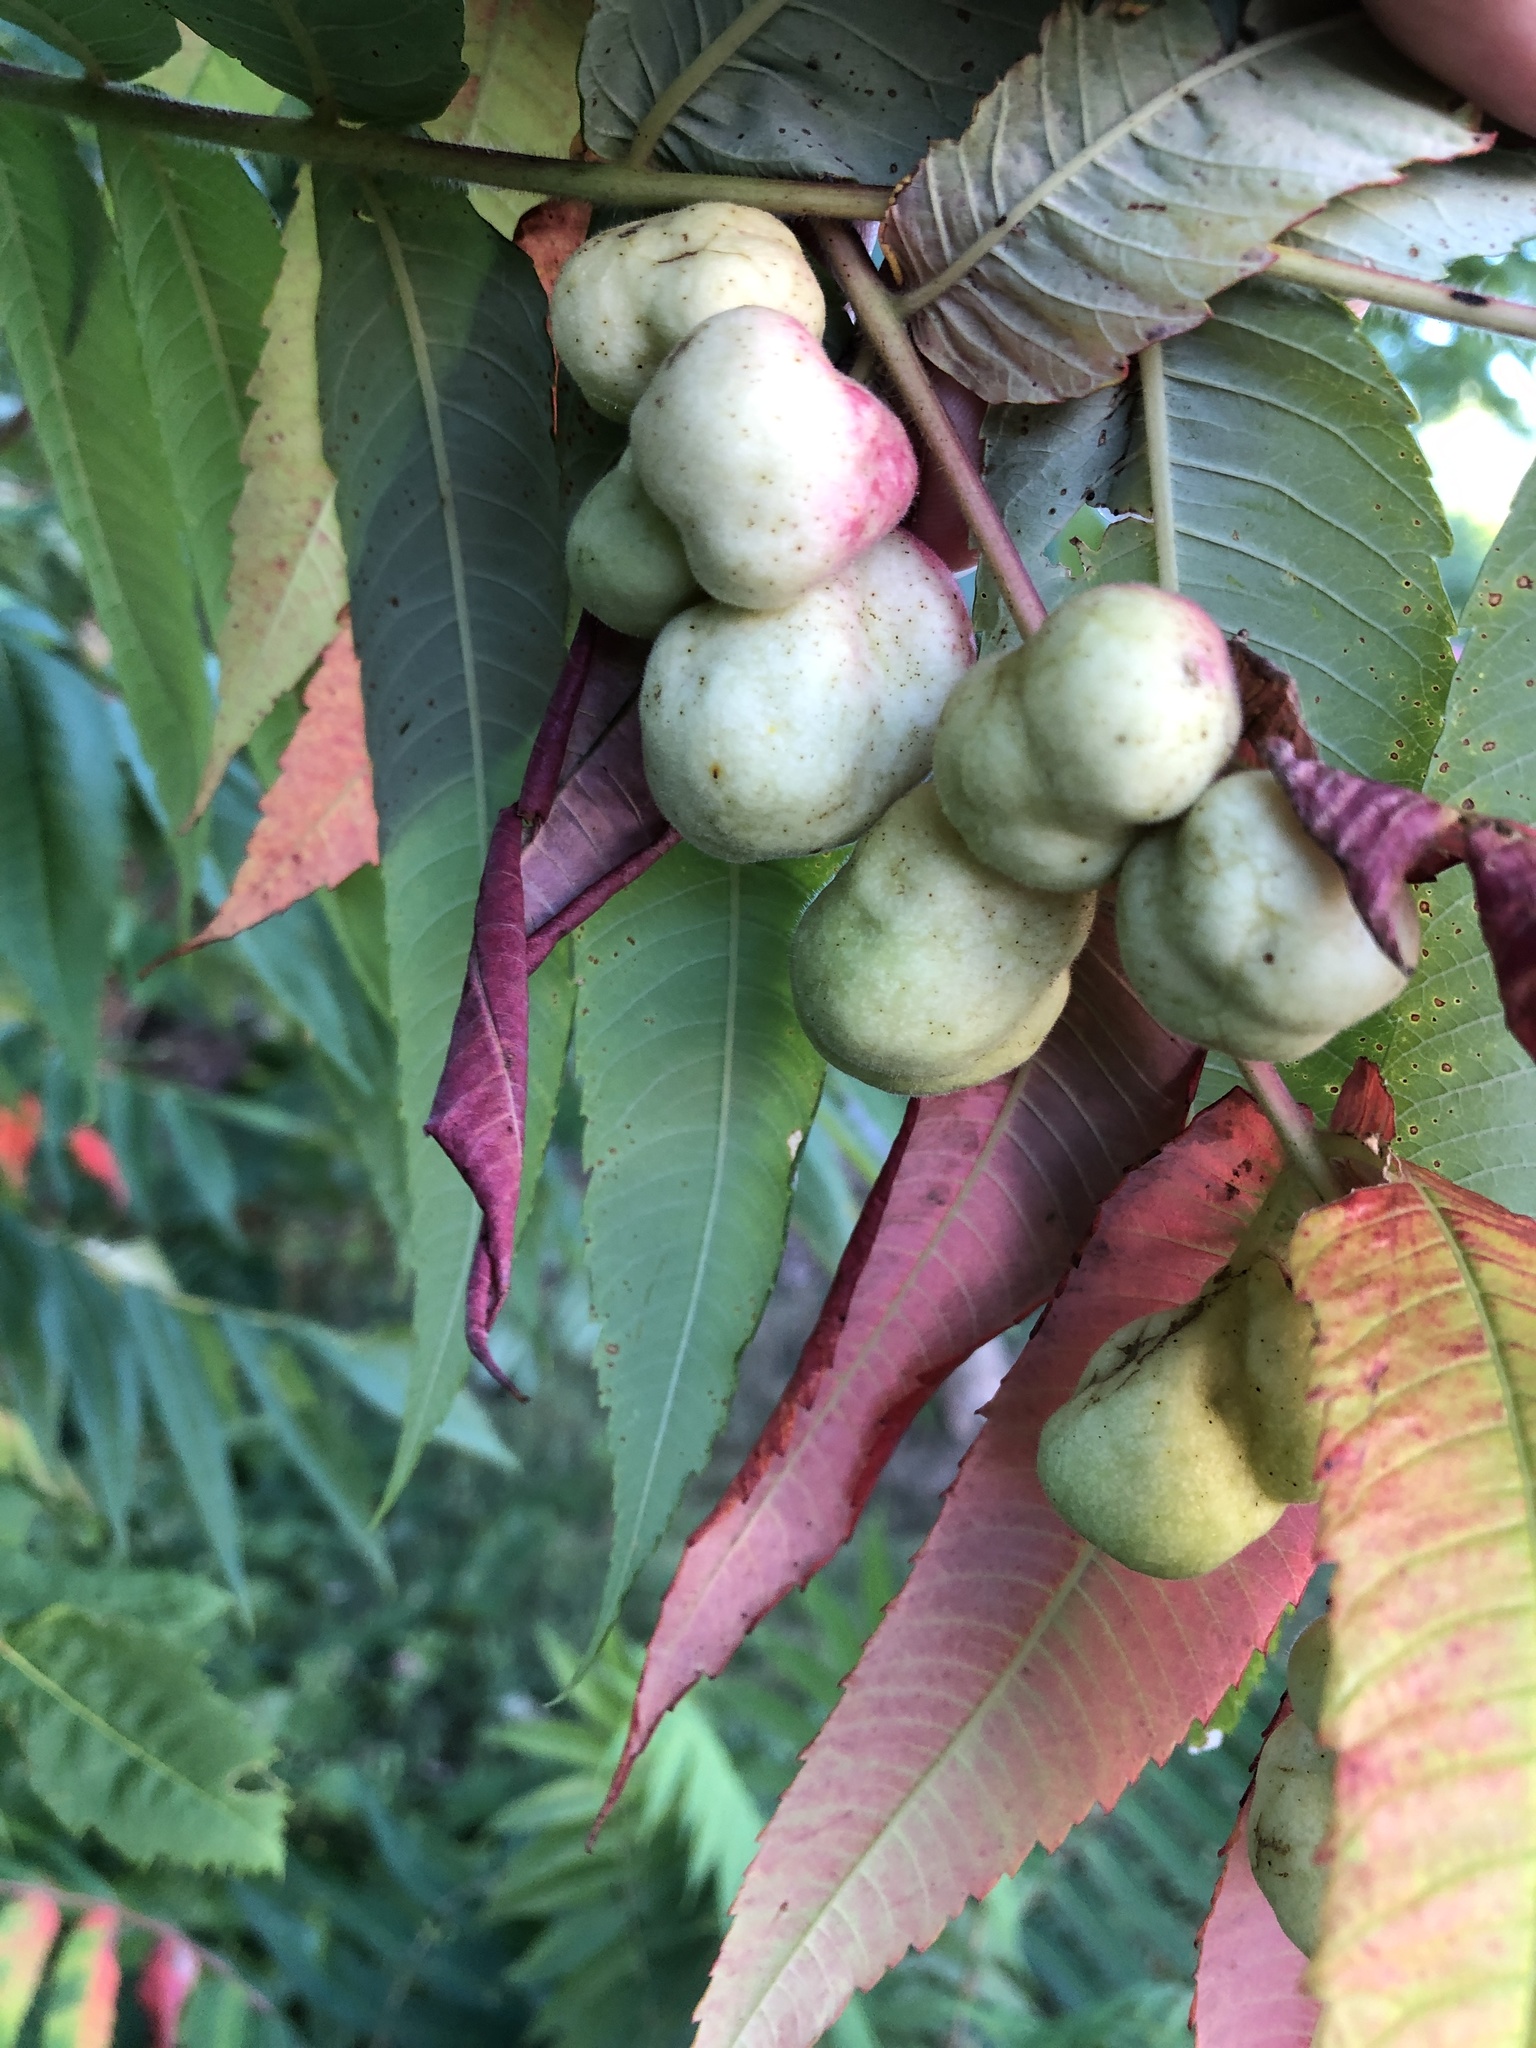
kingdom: Animalia
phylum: Arthropoda
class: Insecta
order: Hemiptera
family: Aphididae
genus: Melaphis
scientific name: Melaphis rhois
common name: Sumac gall aphid
